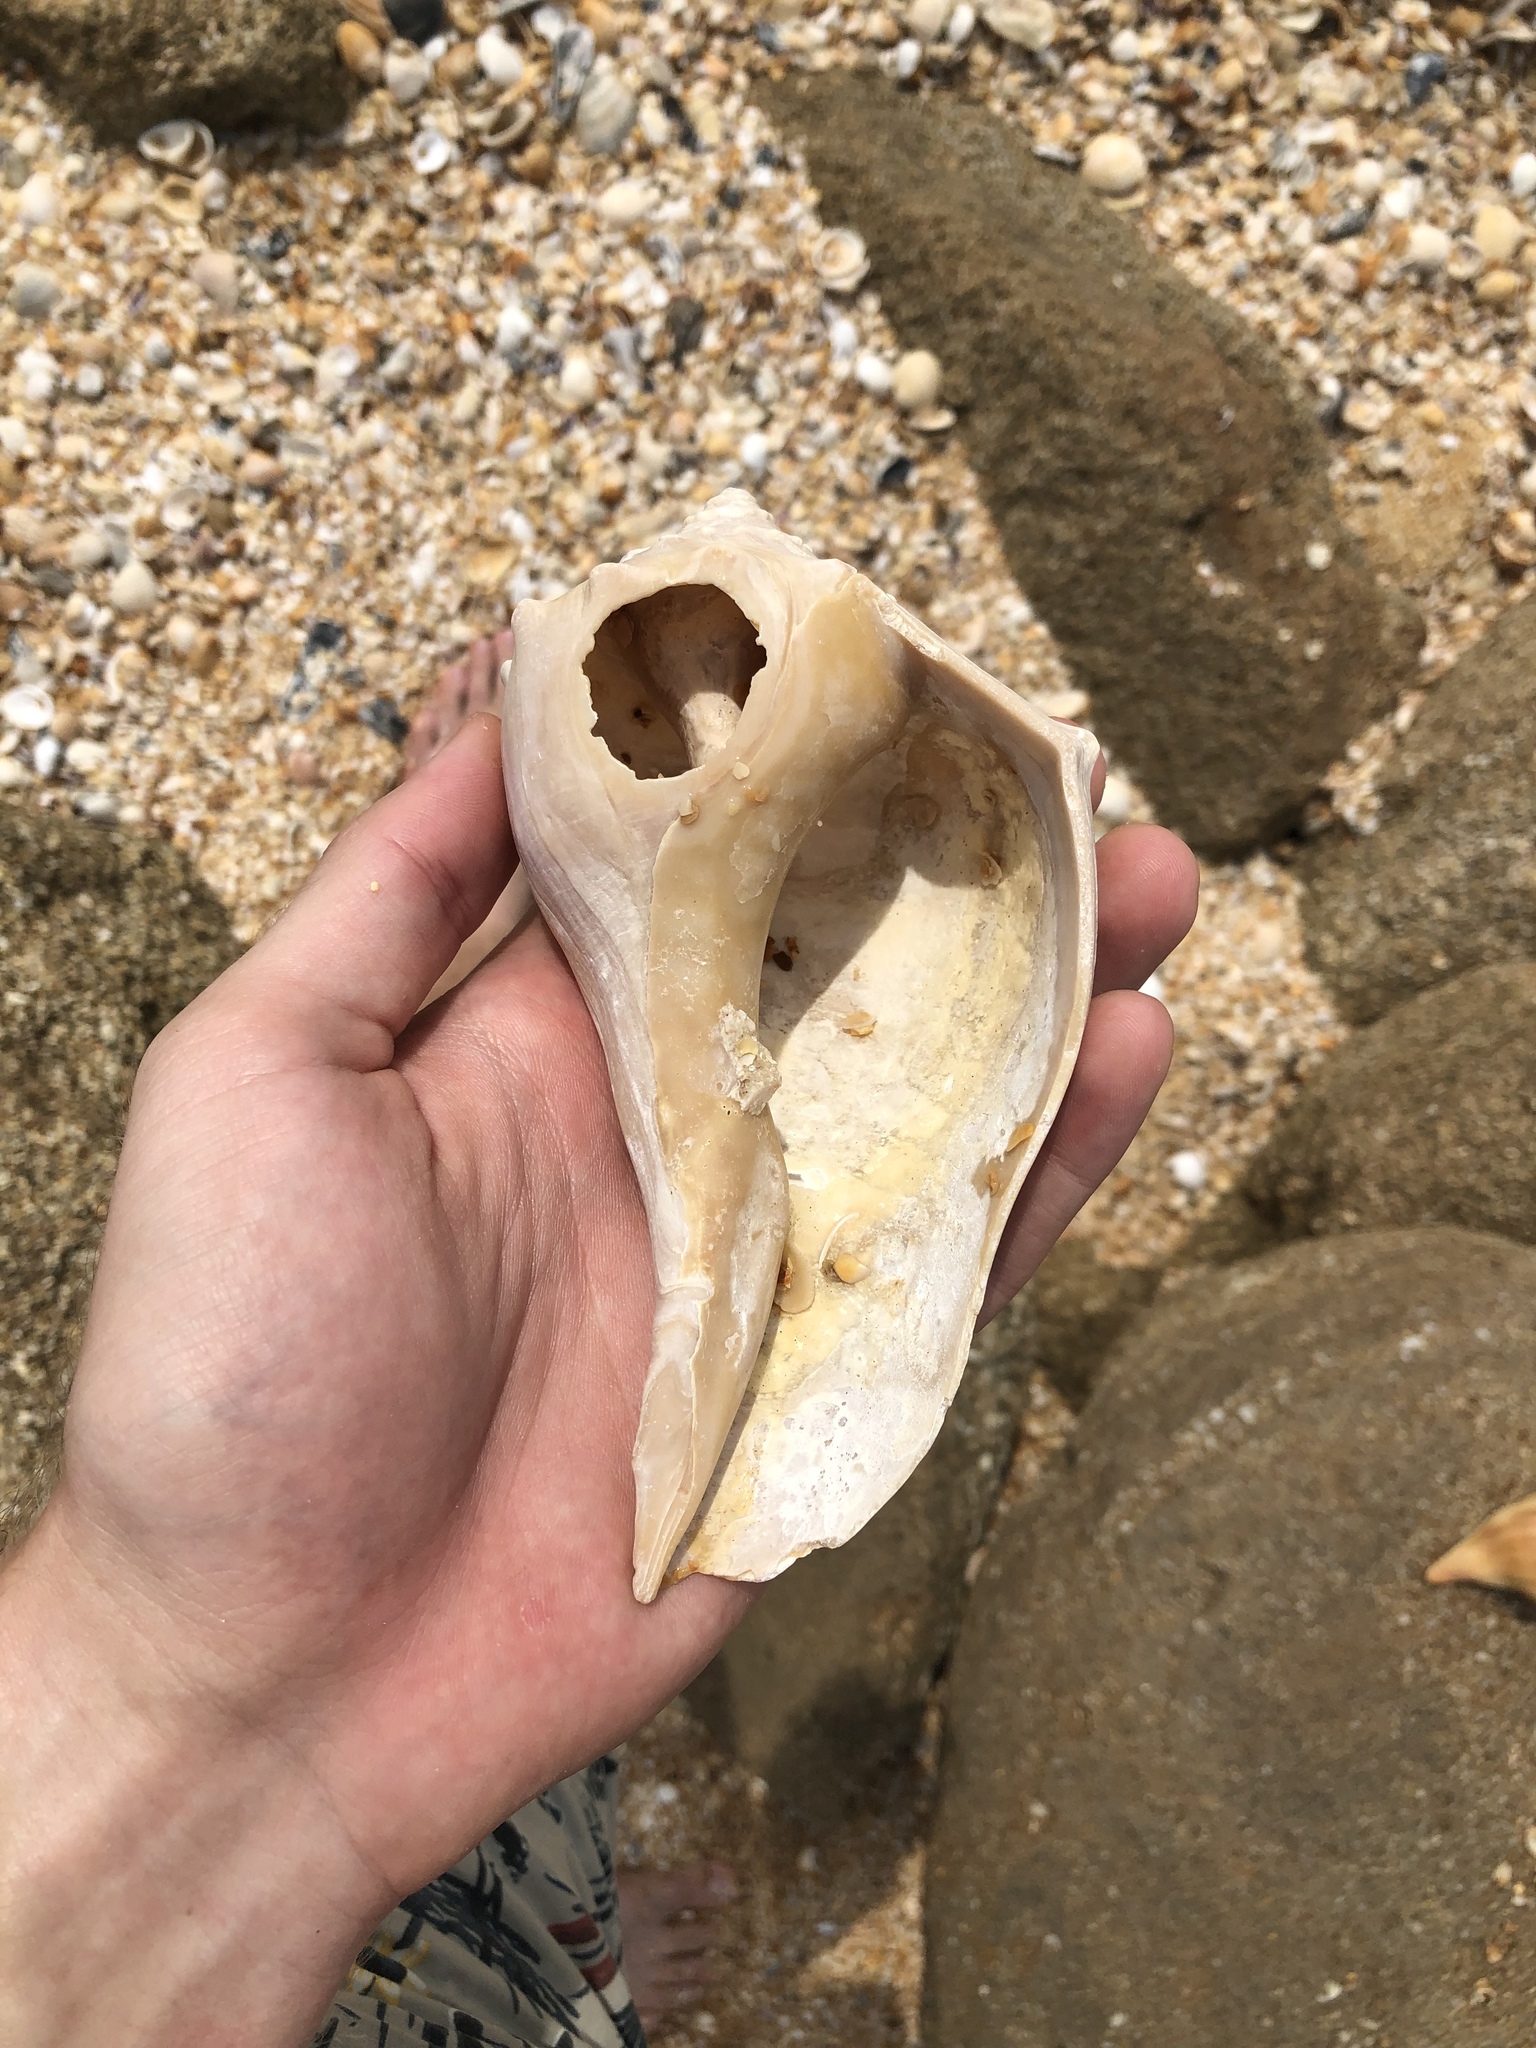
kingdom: Animalia
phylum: Mollusca
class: Gastropoda
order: Neogastropoda
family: Busyconidae
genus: Busycon
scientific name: Busycon carica
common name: Knobbed whelk
